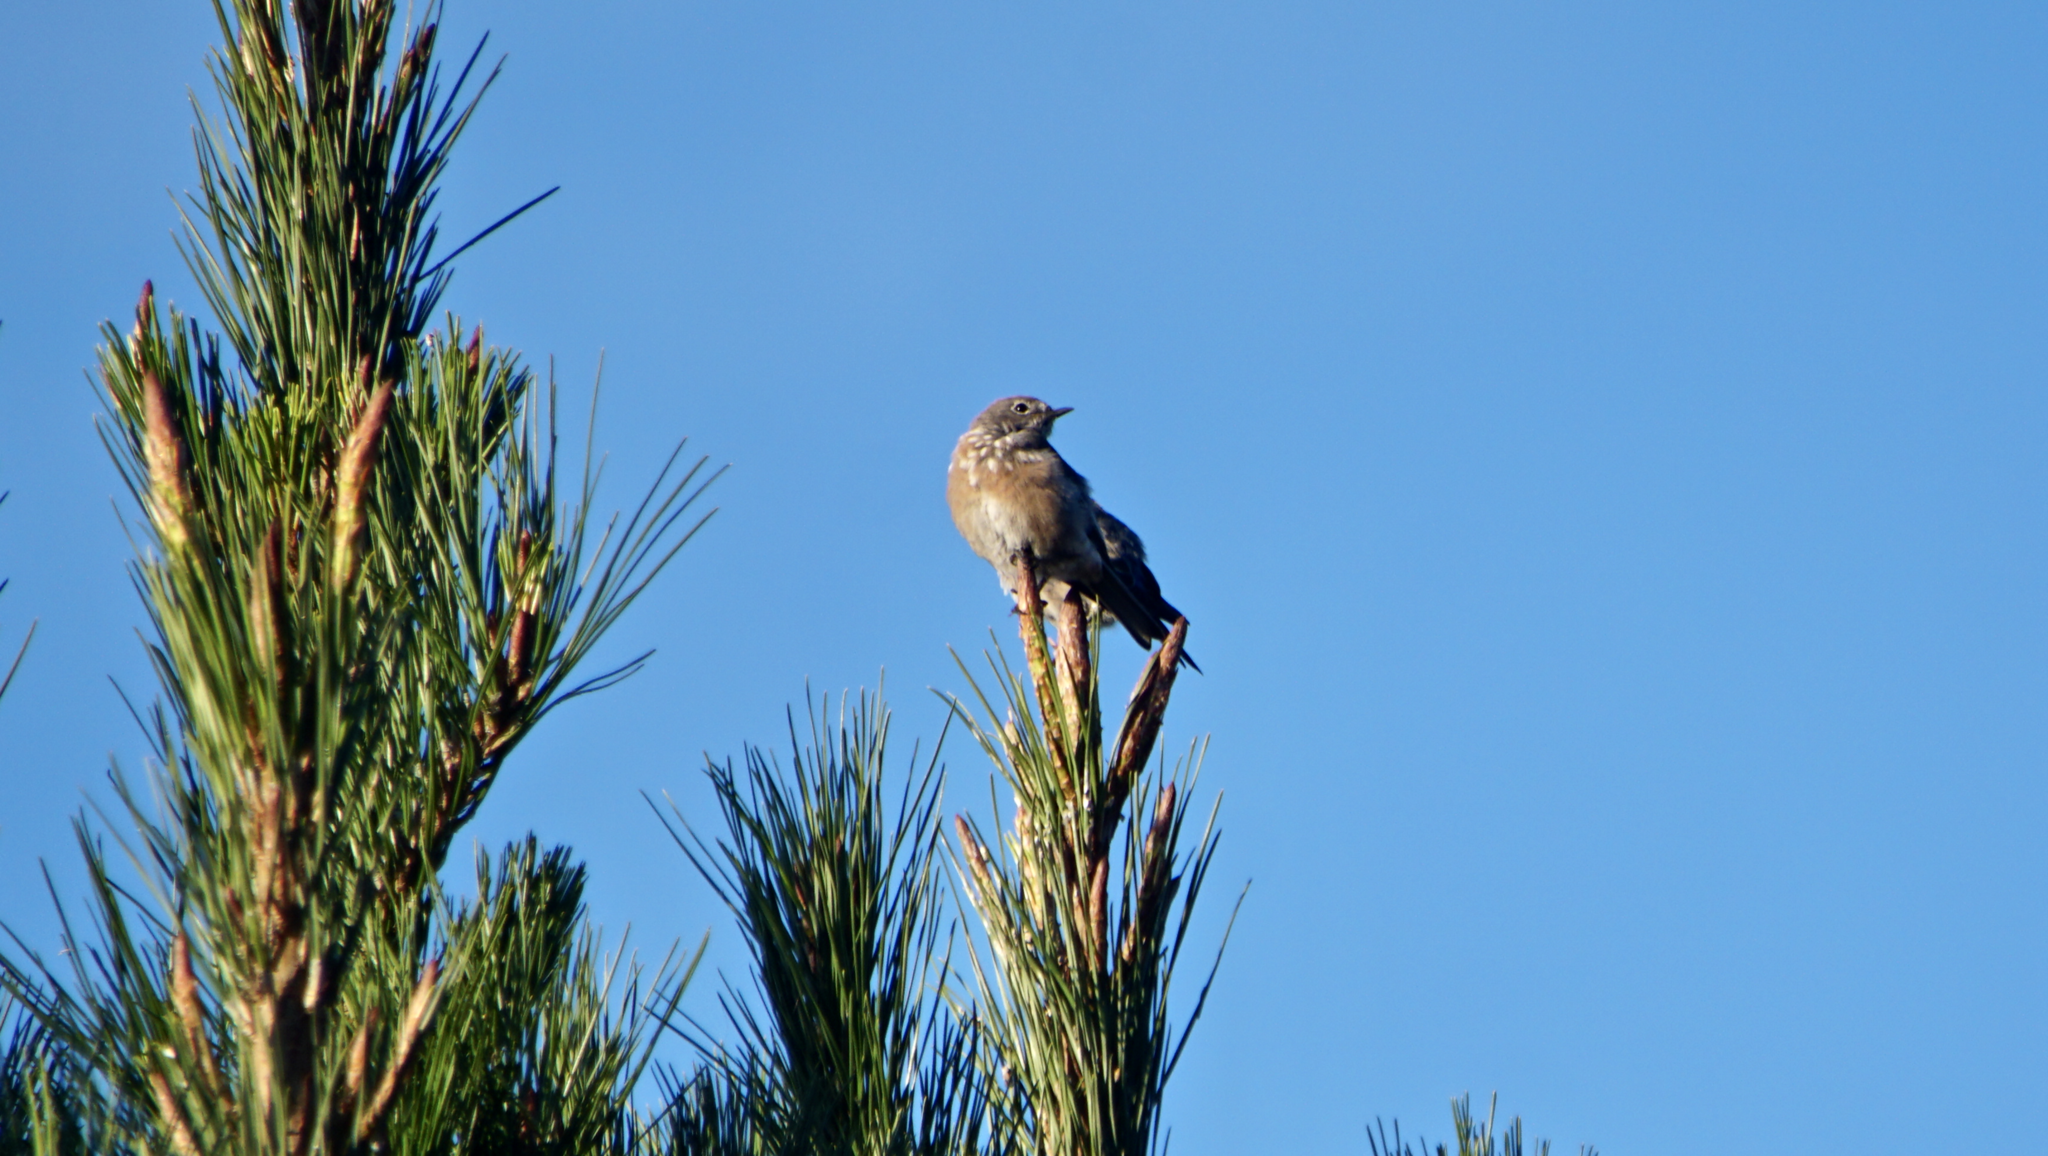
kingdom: Animalia
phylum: Chordata
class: Aves
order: Passeriformes
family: Turdidae
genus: Sialia
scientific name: Sialia mexicana
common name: Western bluebird
